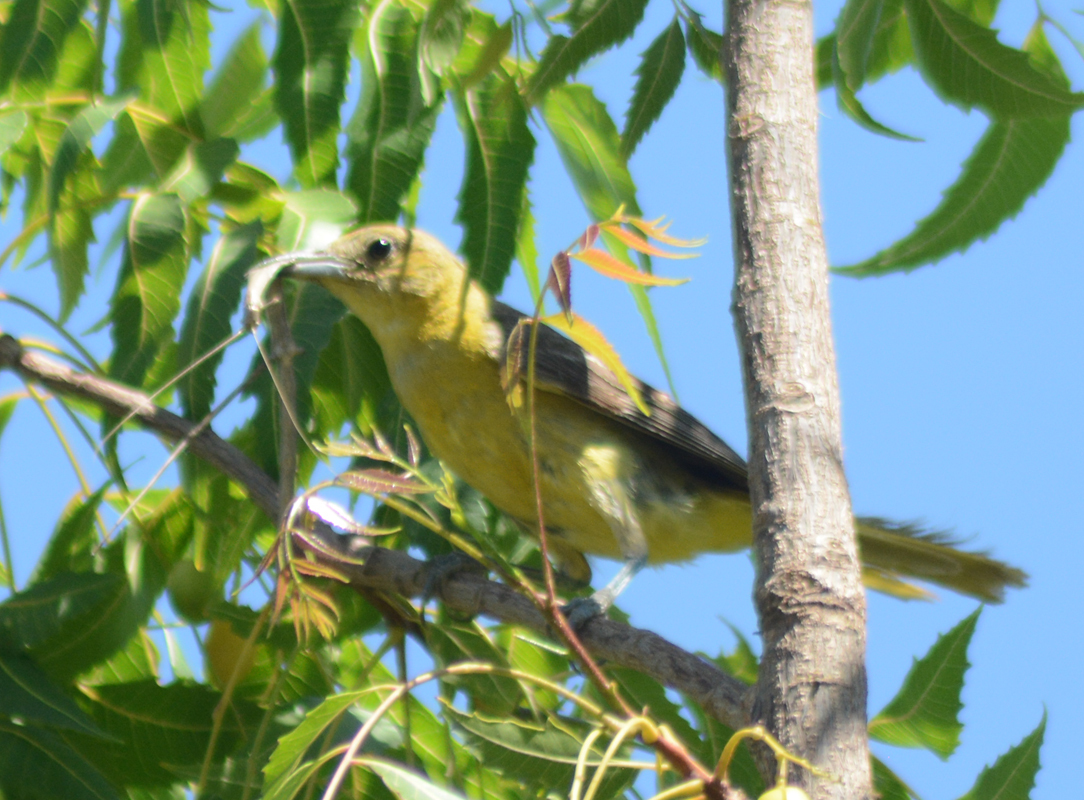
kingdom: Animalia
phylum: Chordata
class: Aves
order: Passeriformes
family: Icteridae
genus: Icterus
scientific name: Icterus cucullatus
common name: Hooded oriole
